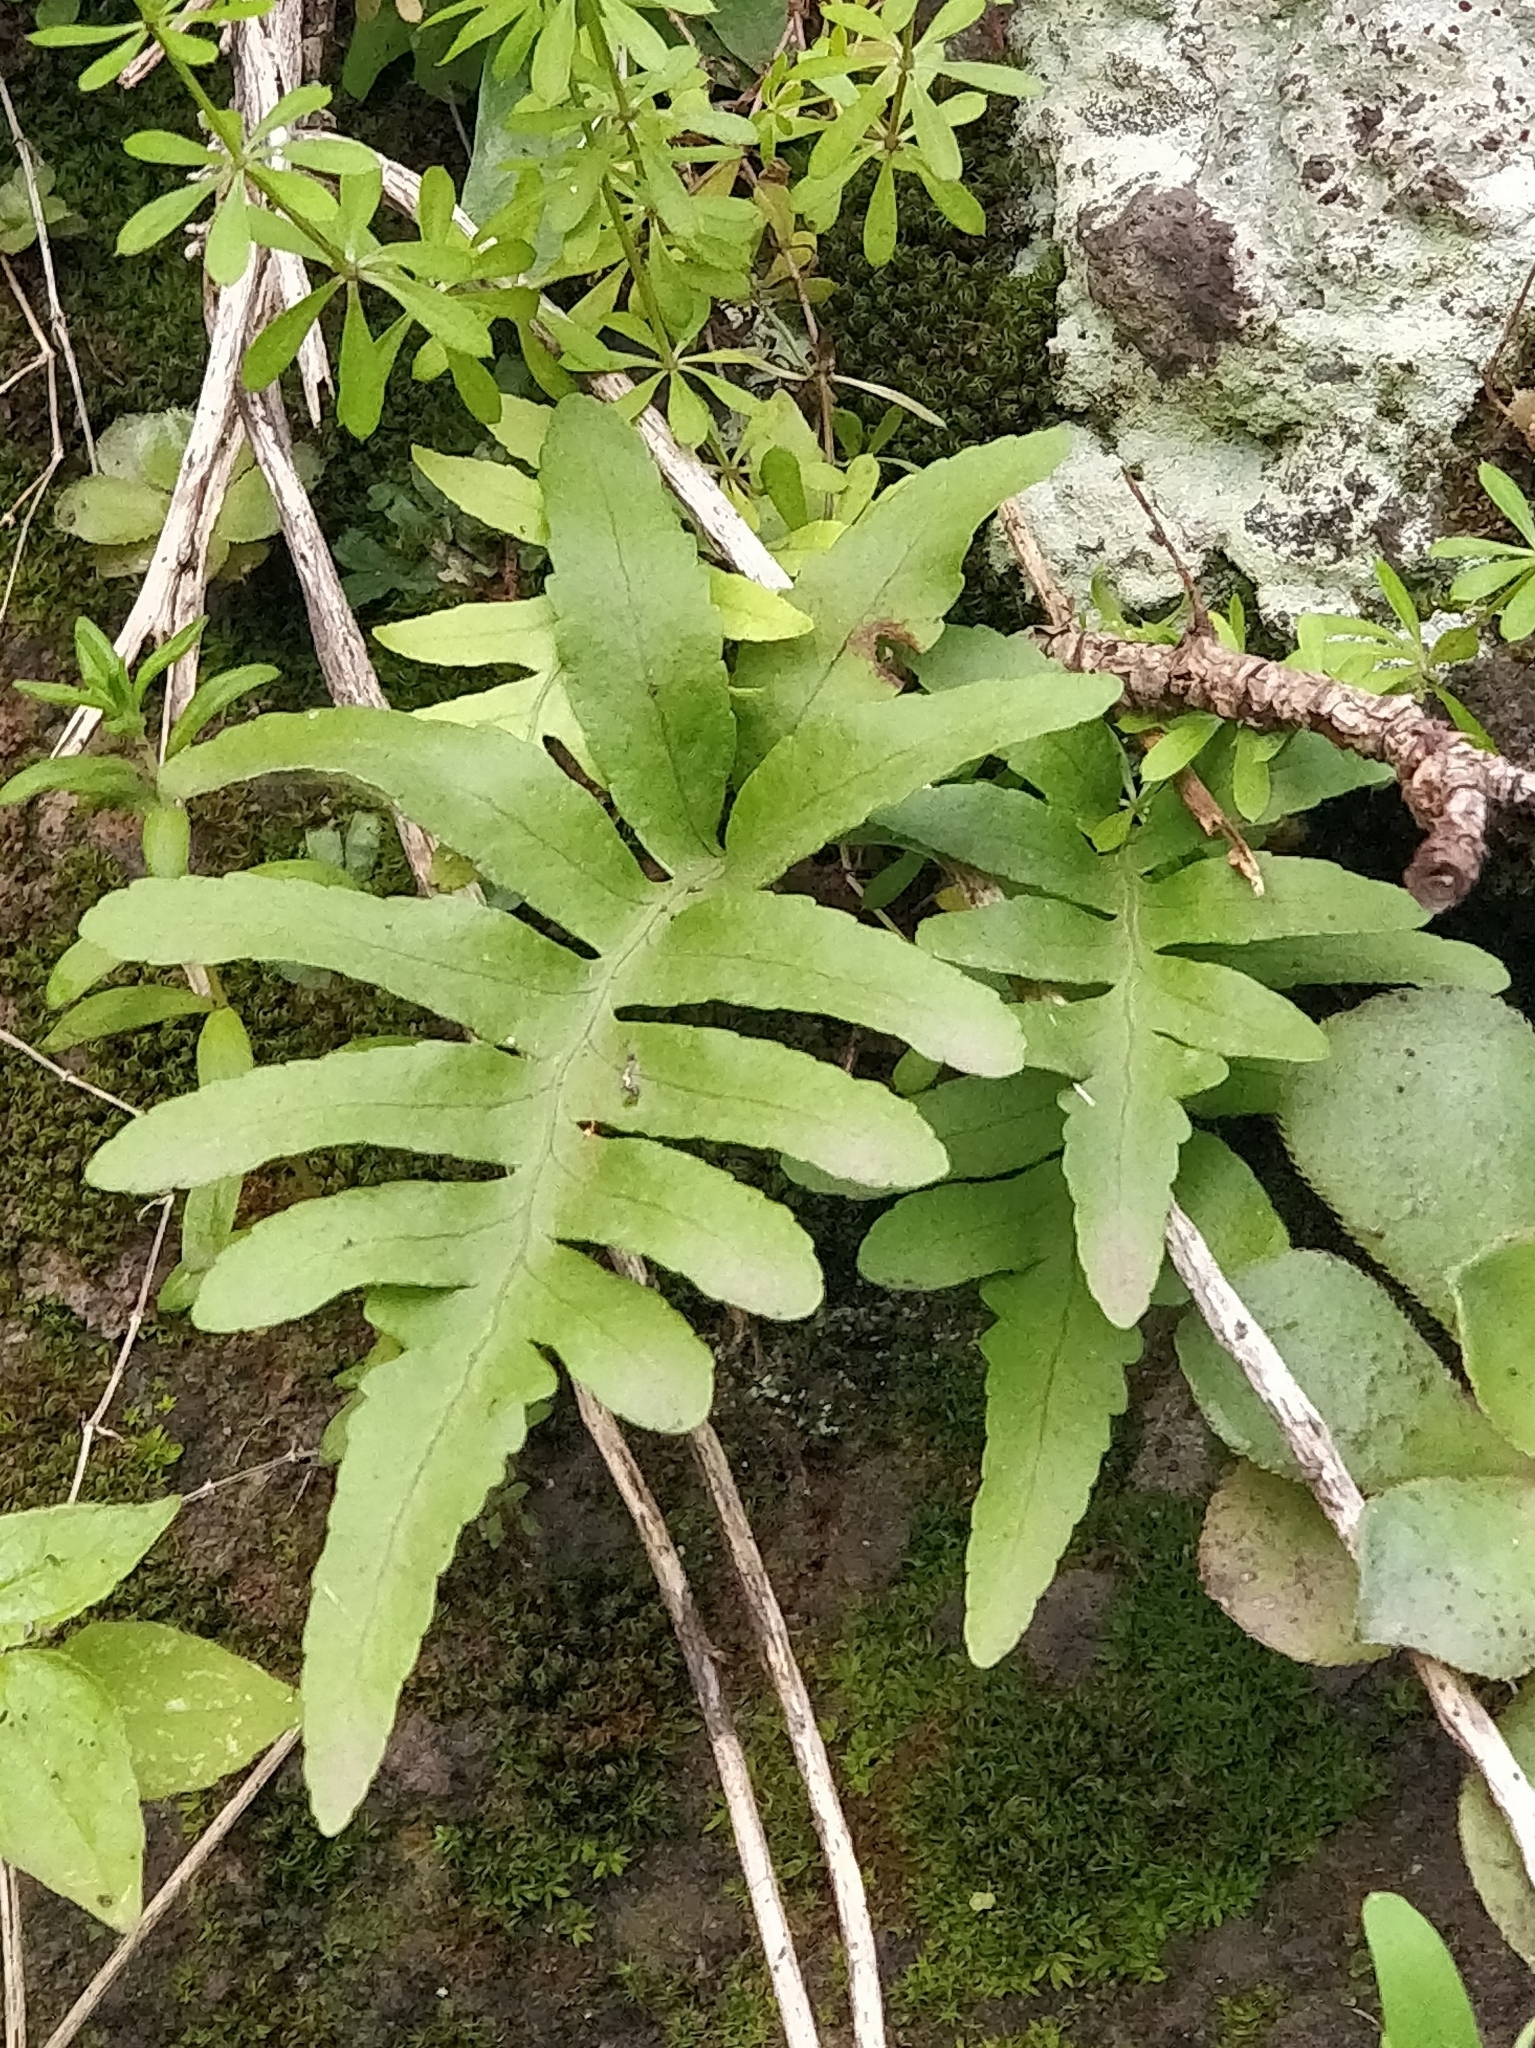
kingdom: Plantae
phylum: Tracheophyta
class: Polypodiopsida
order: Polypodiales
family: Polypodiaceae
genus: Polypodium
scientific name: Polypodium macaronesicum
